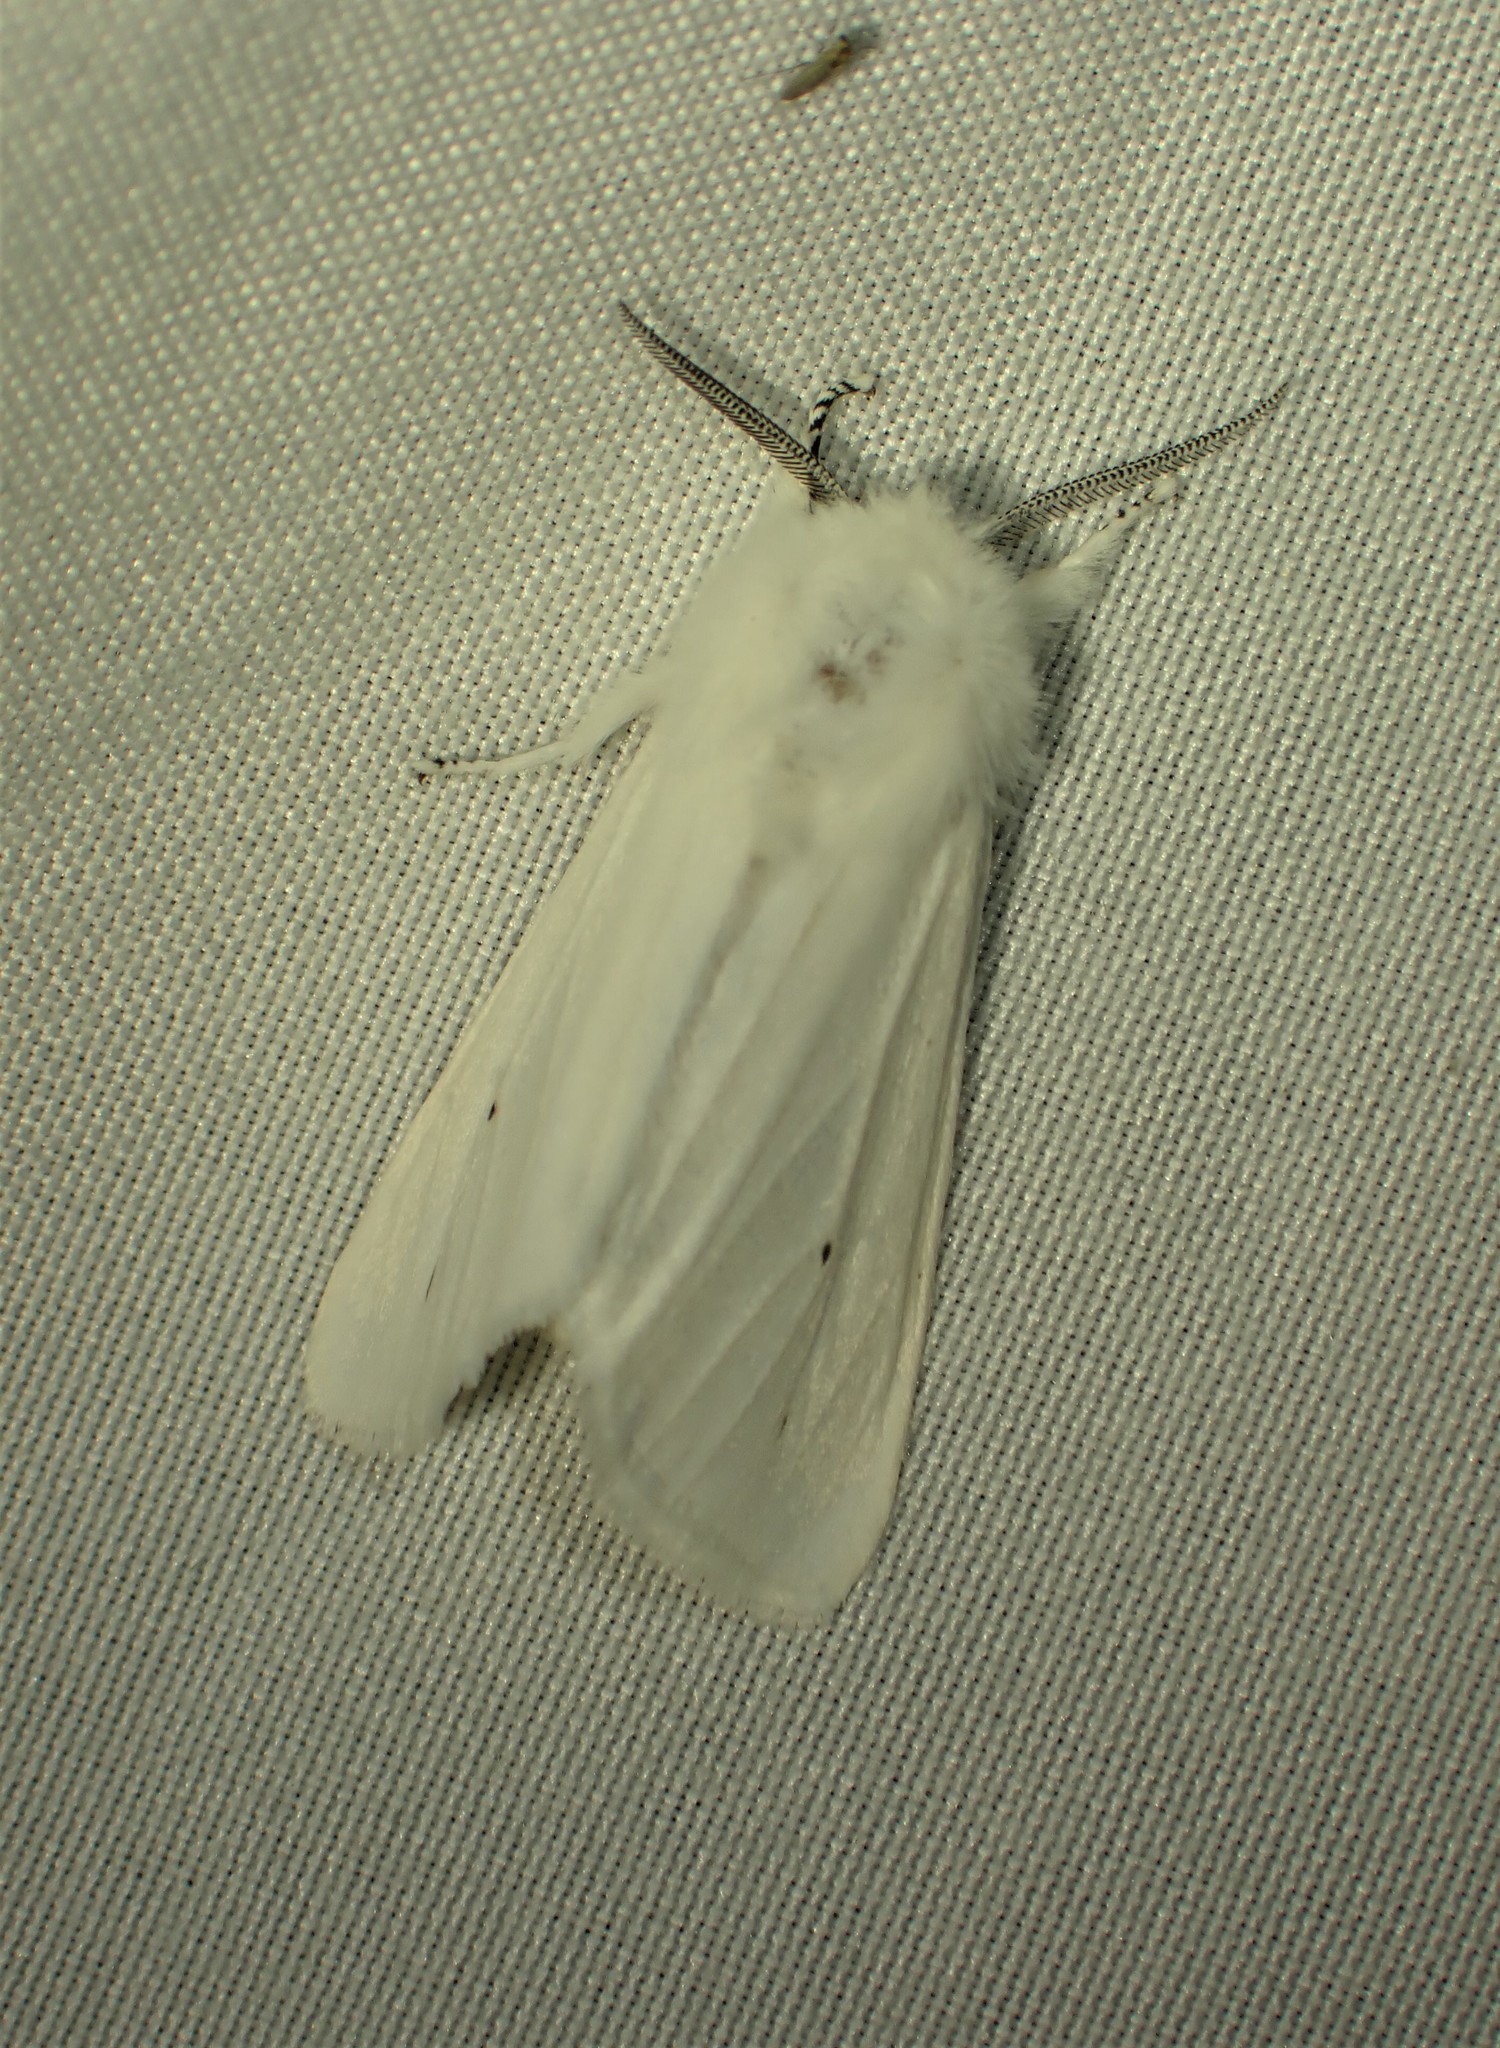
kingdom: Animalia
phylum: Arthropoda
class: Insecta
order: Lepidoptera
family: Erebidae
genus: Spilosoma
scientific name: Spilosoma virginica
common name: Virginia tiger moth
